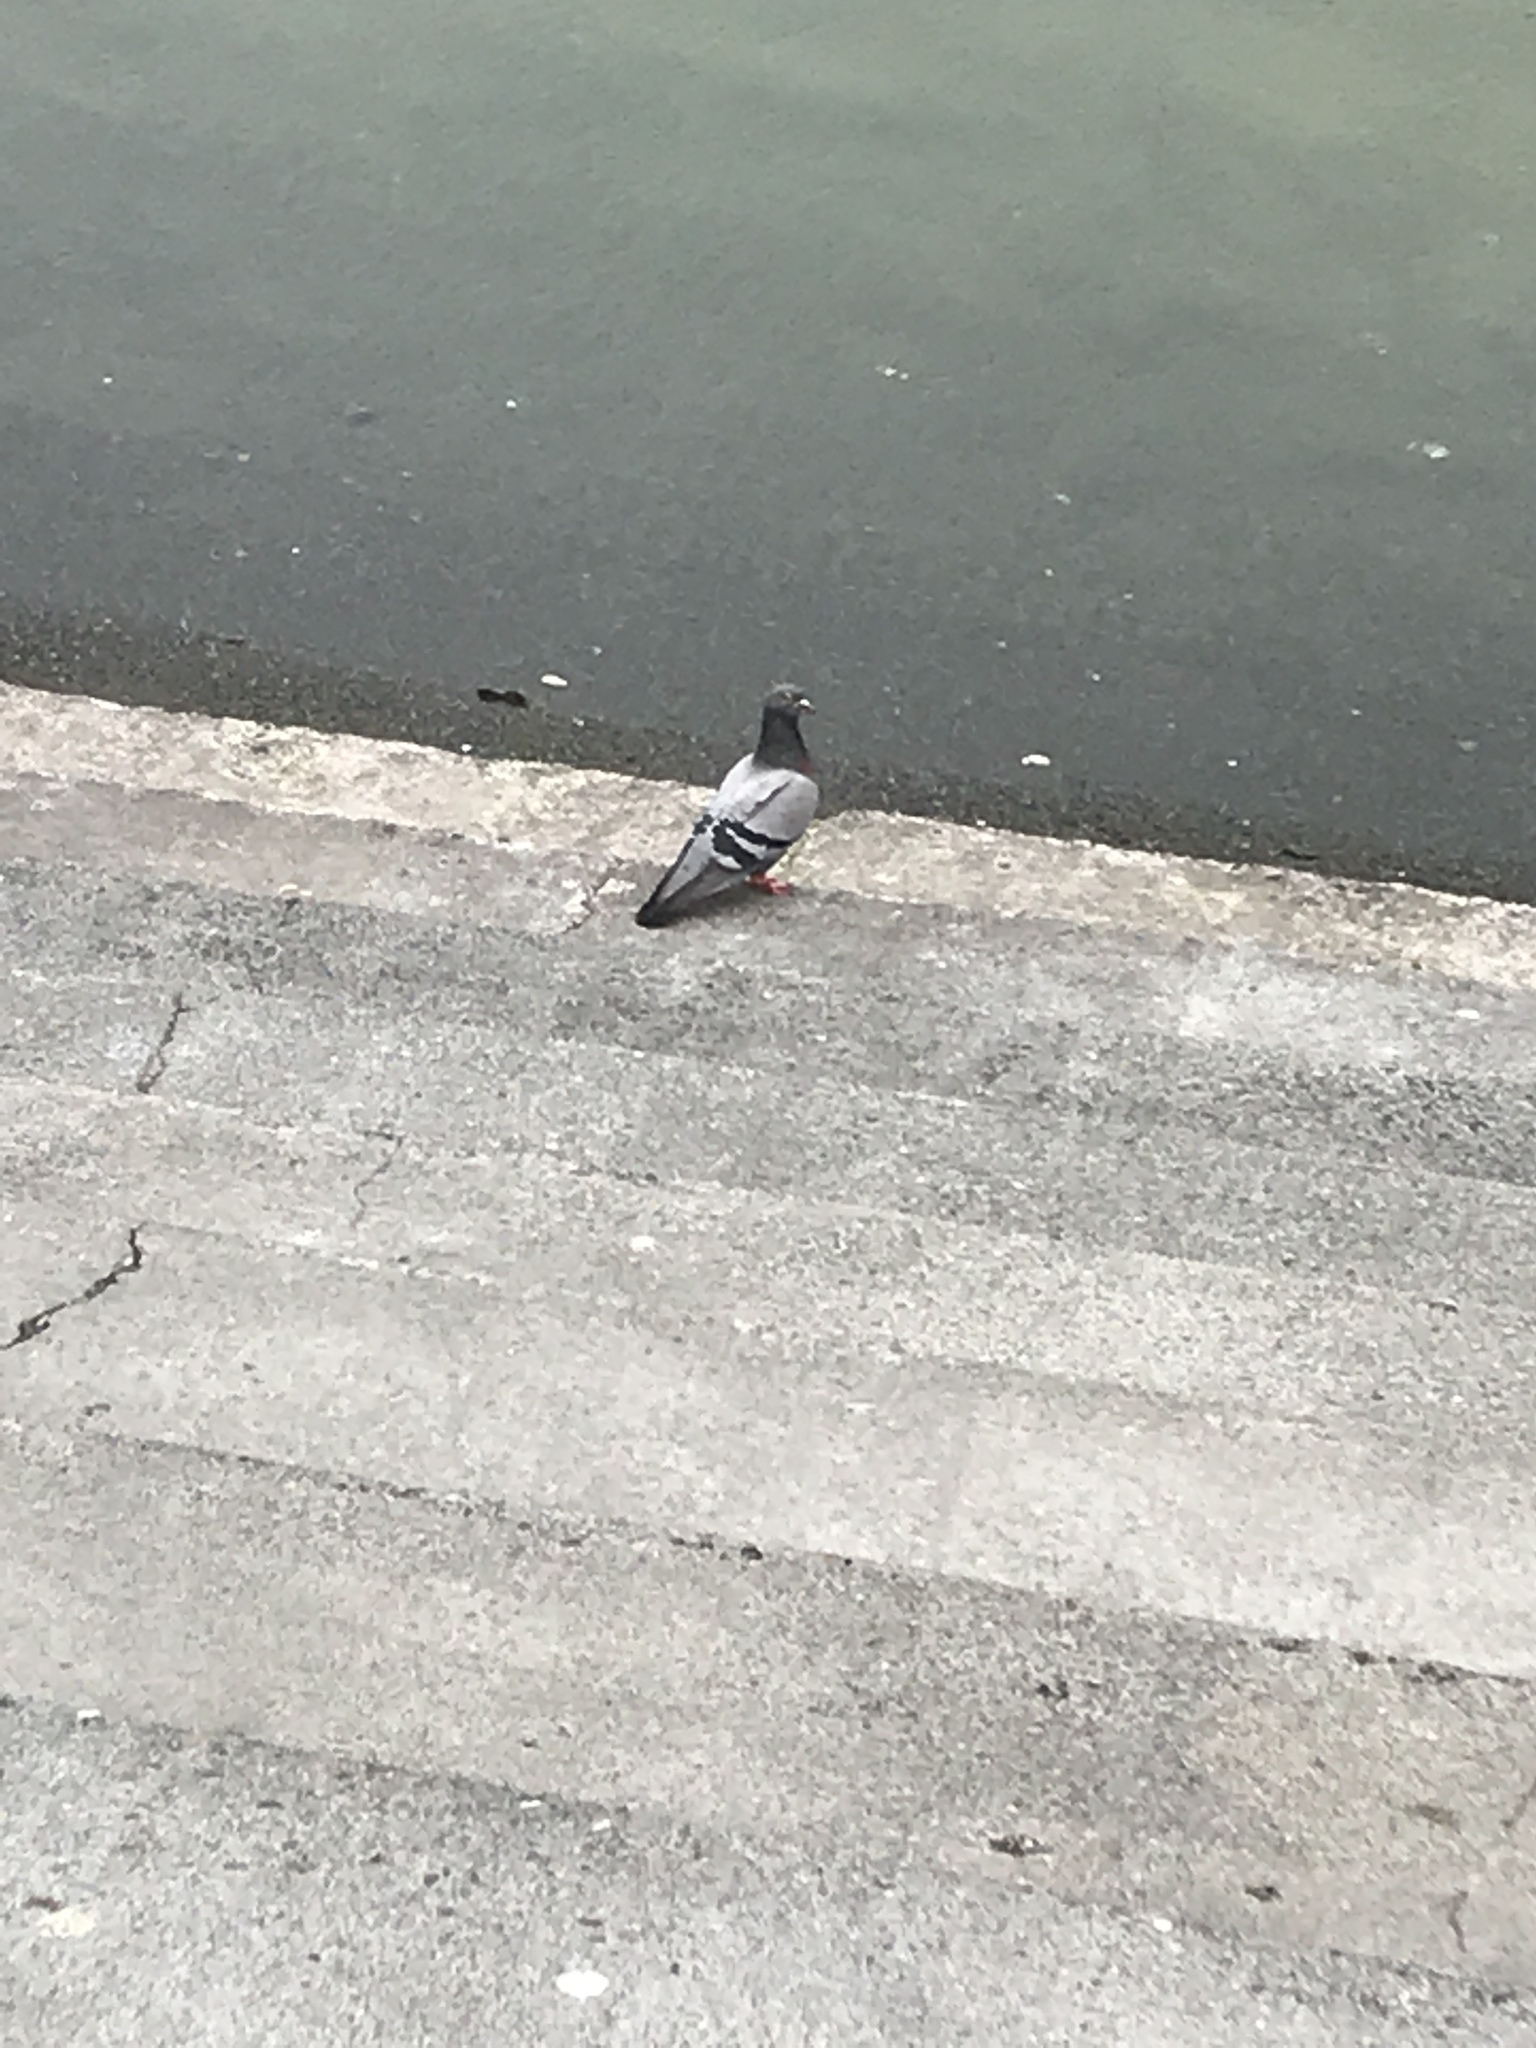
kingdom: Animalia
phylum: Chordata
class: Aves
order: Columbiformes
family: Columbidae
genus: Columba
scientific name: Columba livia
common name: Rock pigeon
